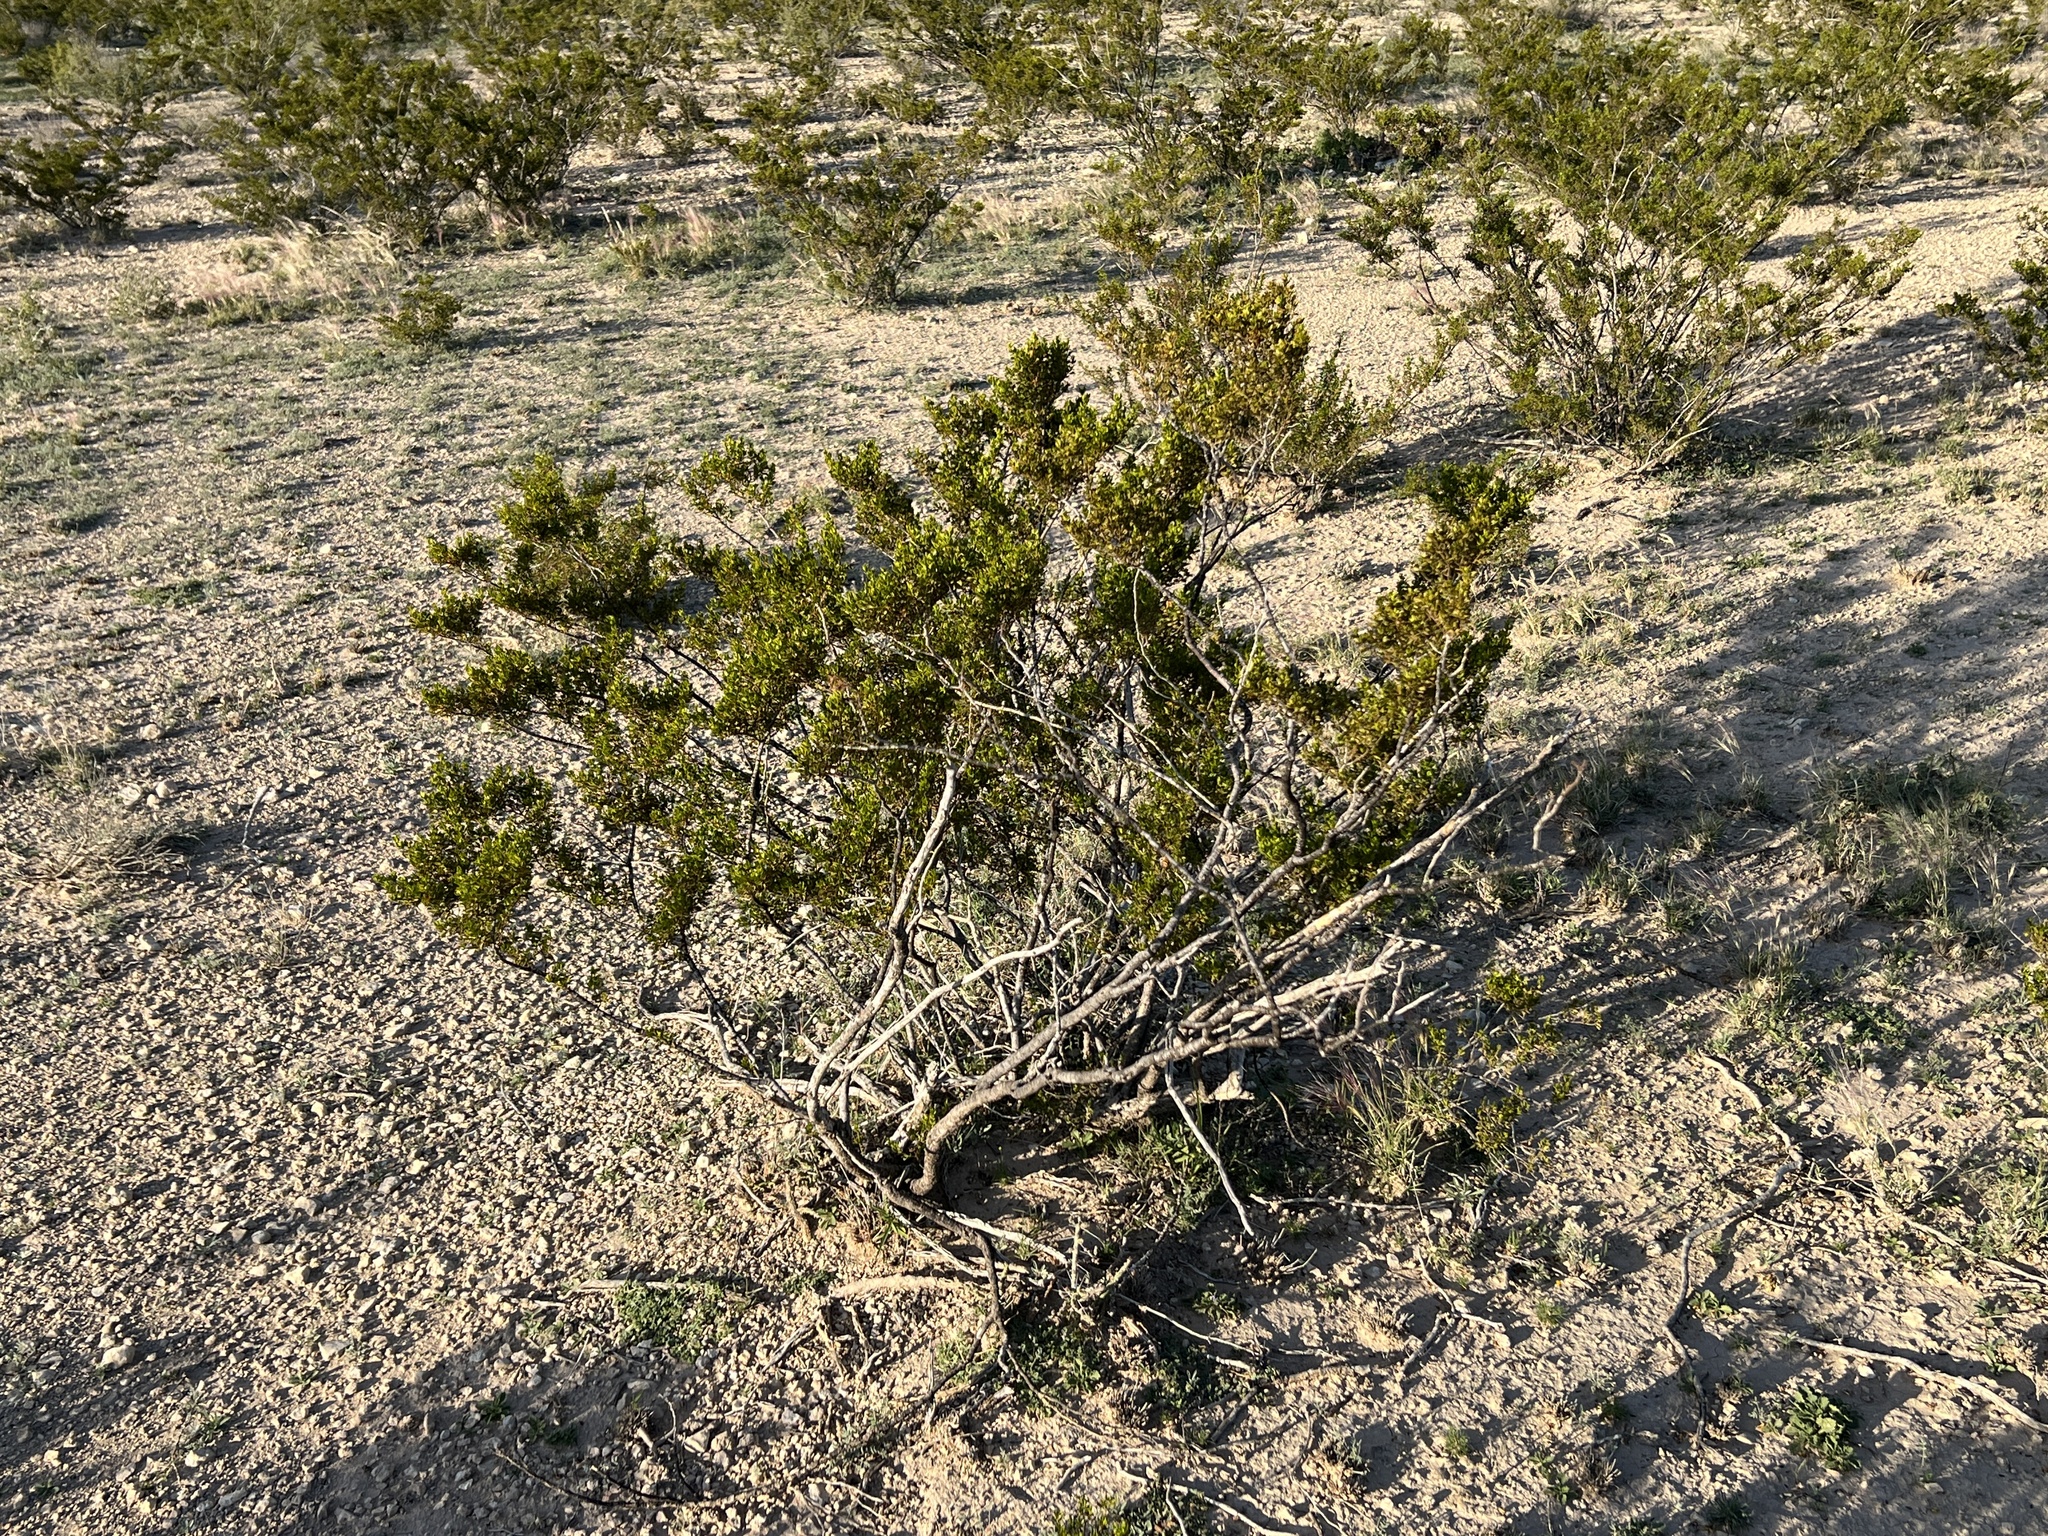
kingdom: Plantae
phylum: Tracheophyta
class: Magnoliopsida
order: Zygophyllales
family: Zygophyllaceae
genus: Larrea
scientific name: Larrea tridentata
